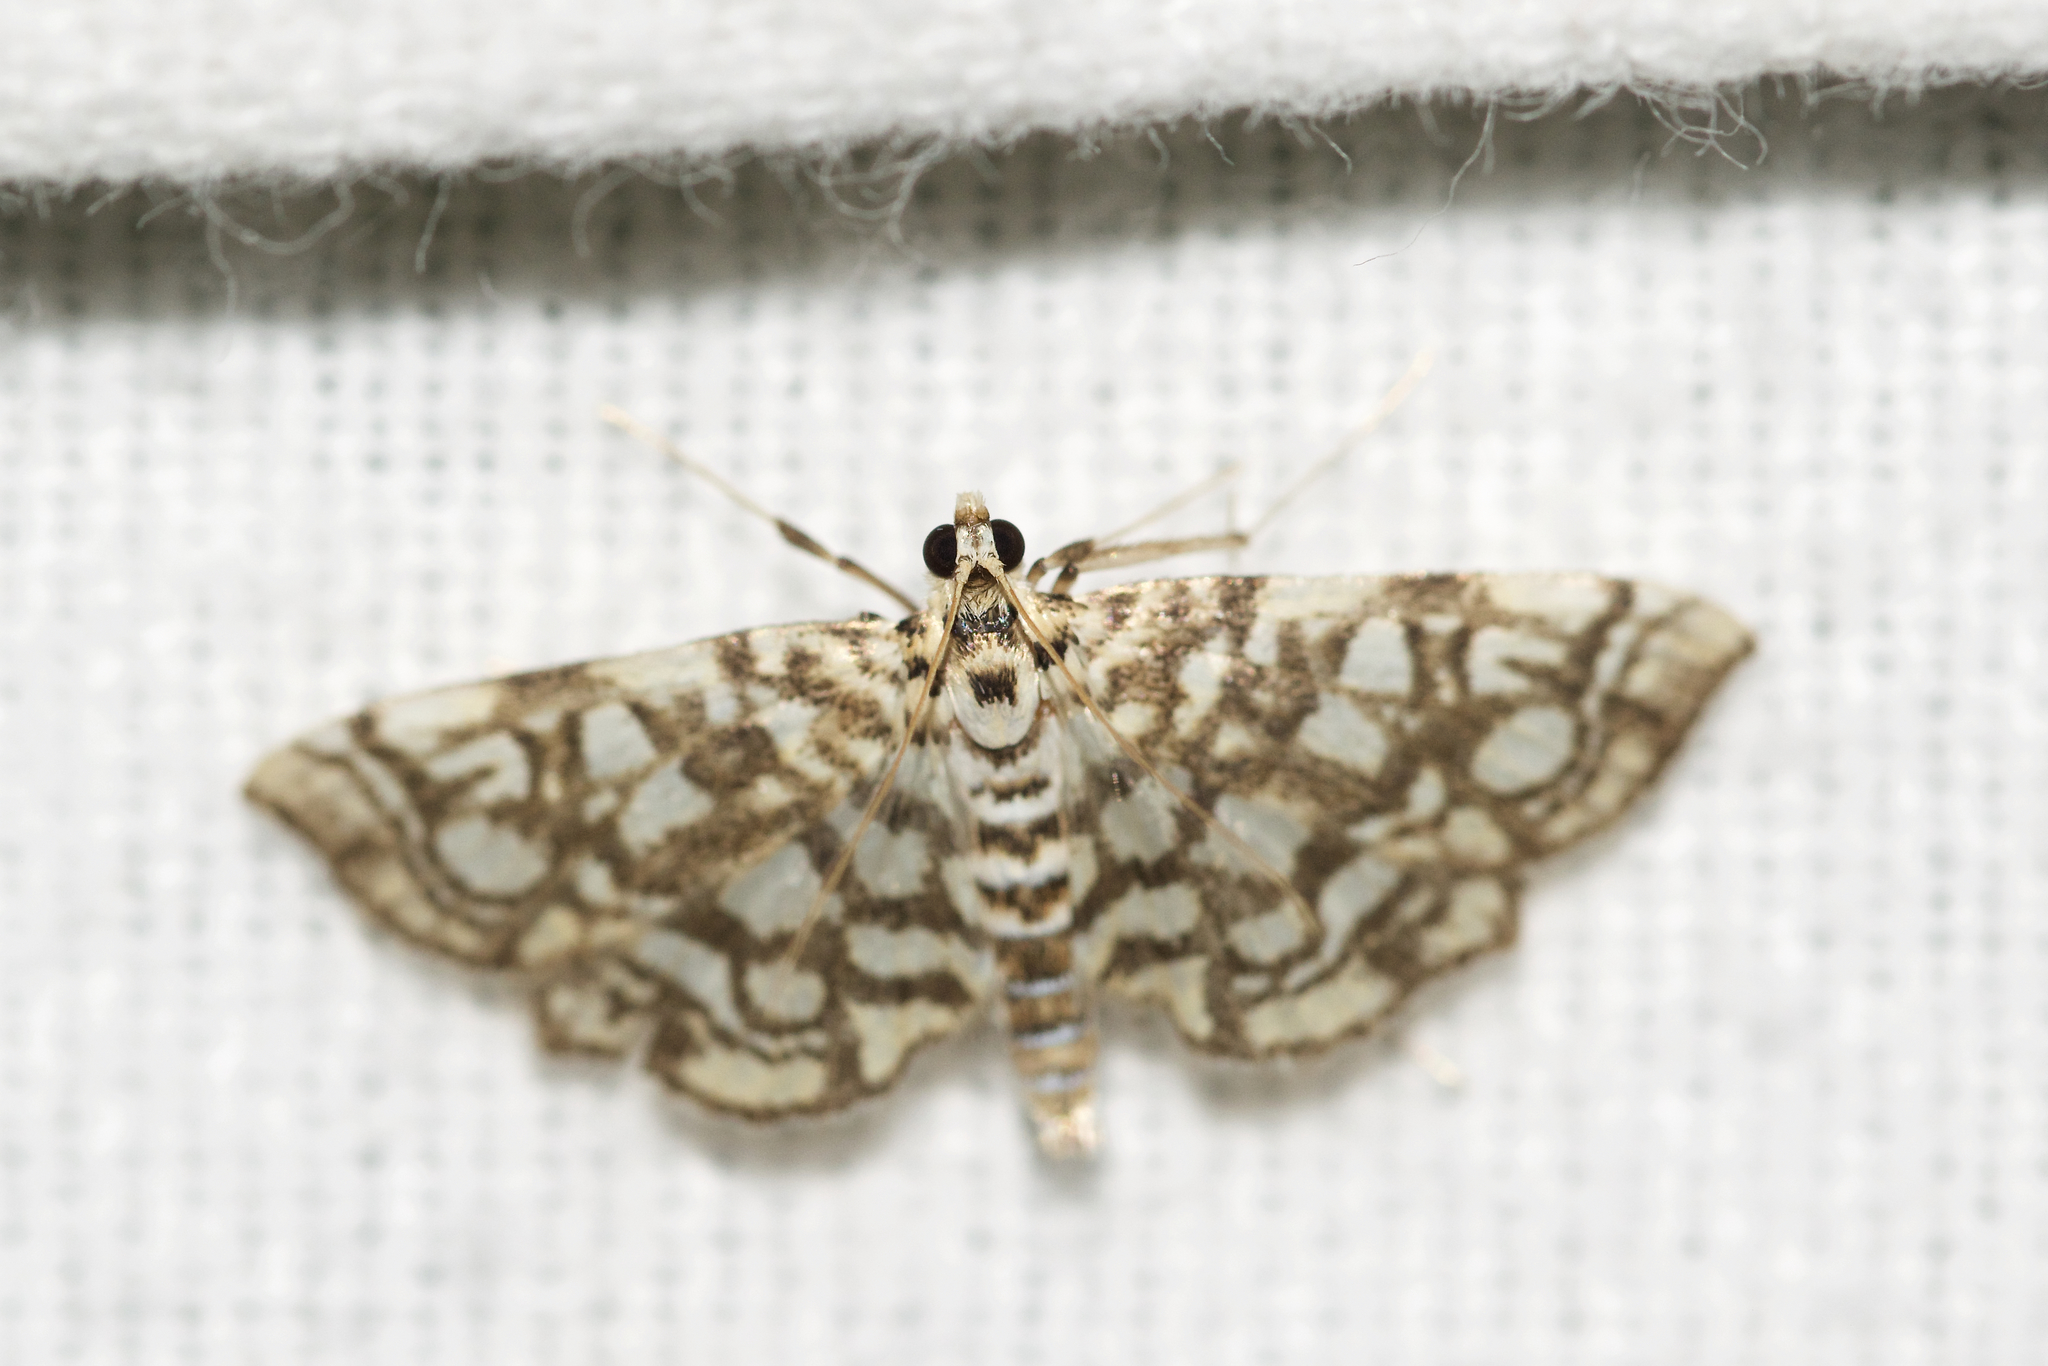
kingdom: Animalia
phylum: Arthropoda
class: Insecta
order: Lepidoptera
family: Crambidae
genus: Lygropia
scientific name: Lygropia rivulalis
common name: Bog lygropia moth
